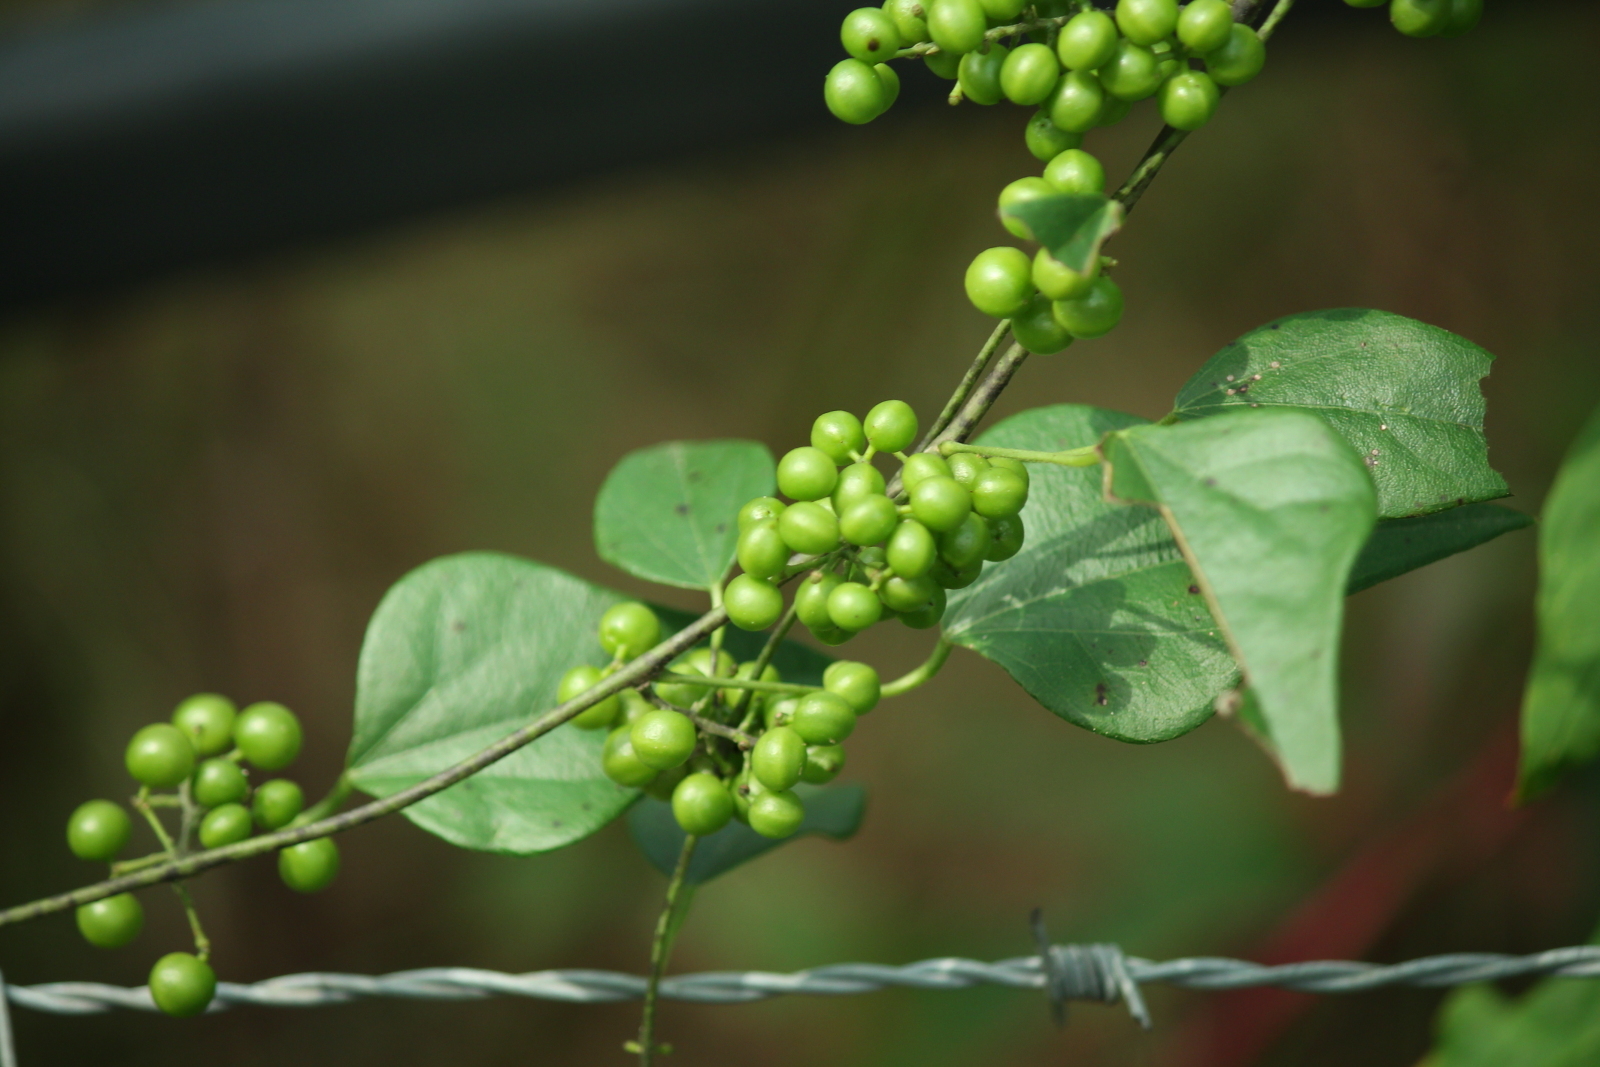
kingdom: Plantae
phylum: Tracheophyta
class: Magnoliopsida
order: Ranunculales
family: Menispermaceae
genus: Cocculus
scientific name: Cocculus carolinus
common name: Carolina moonseed
